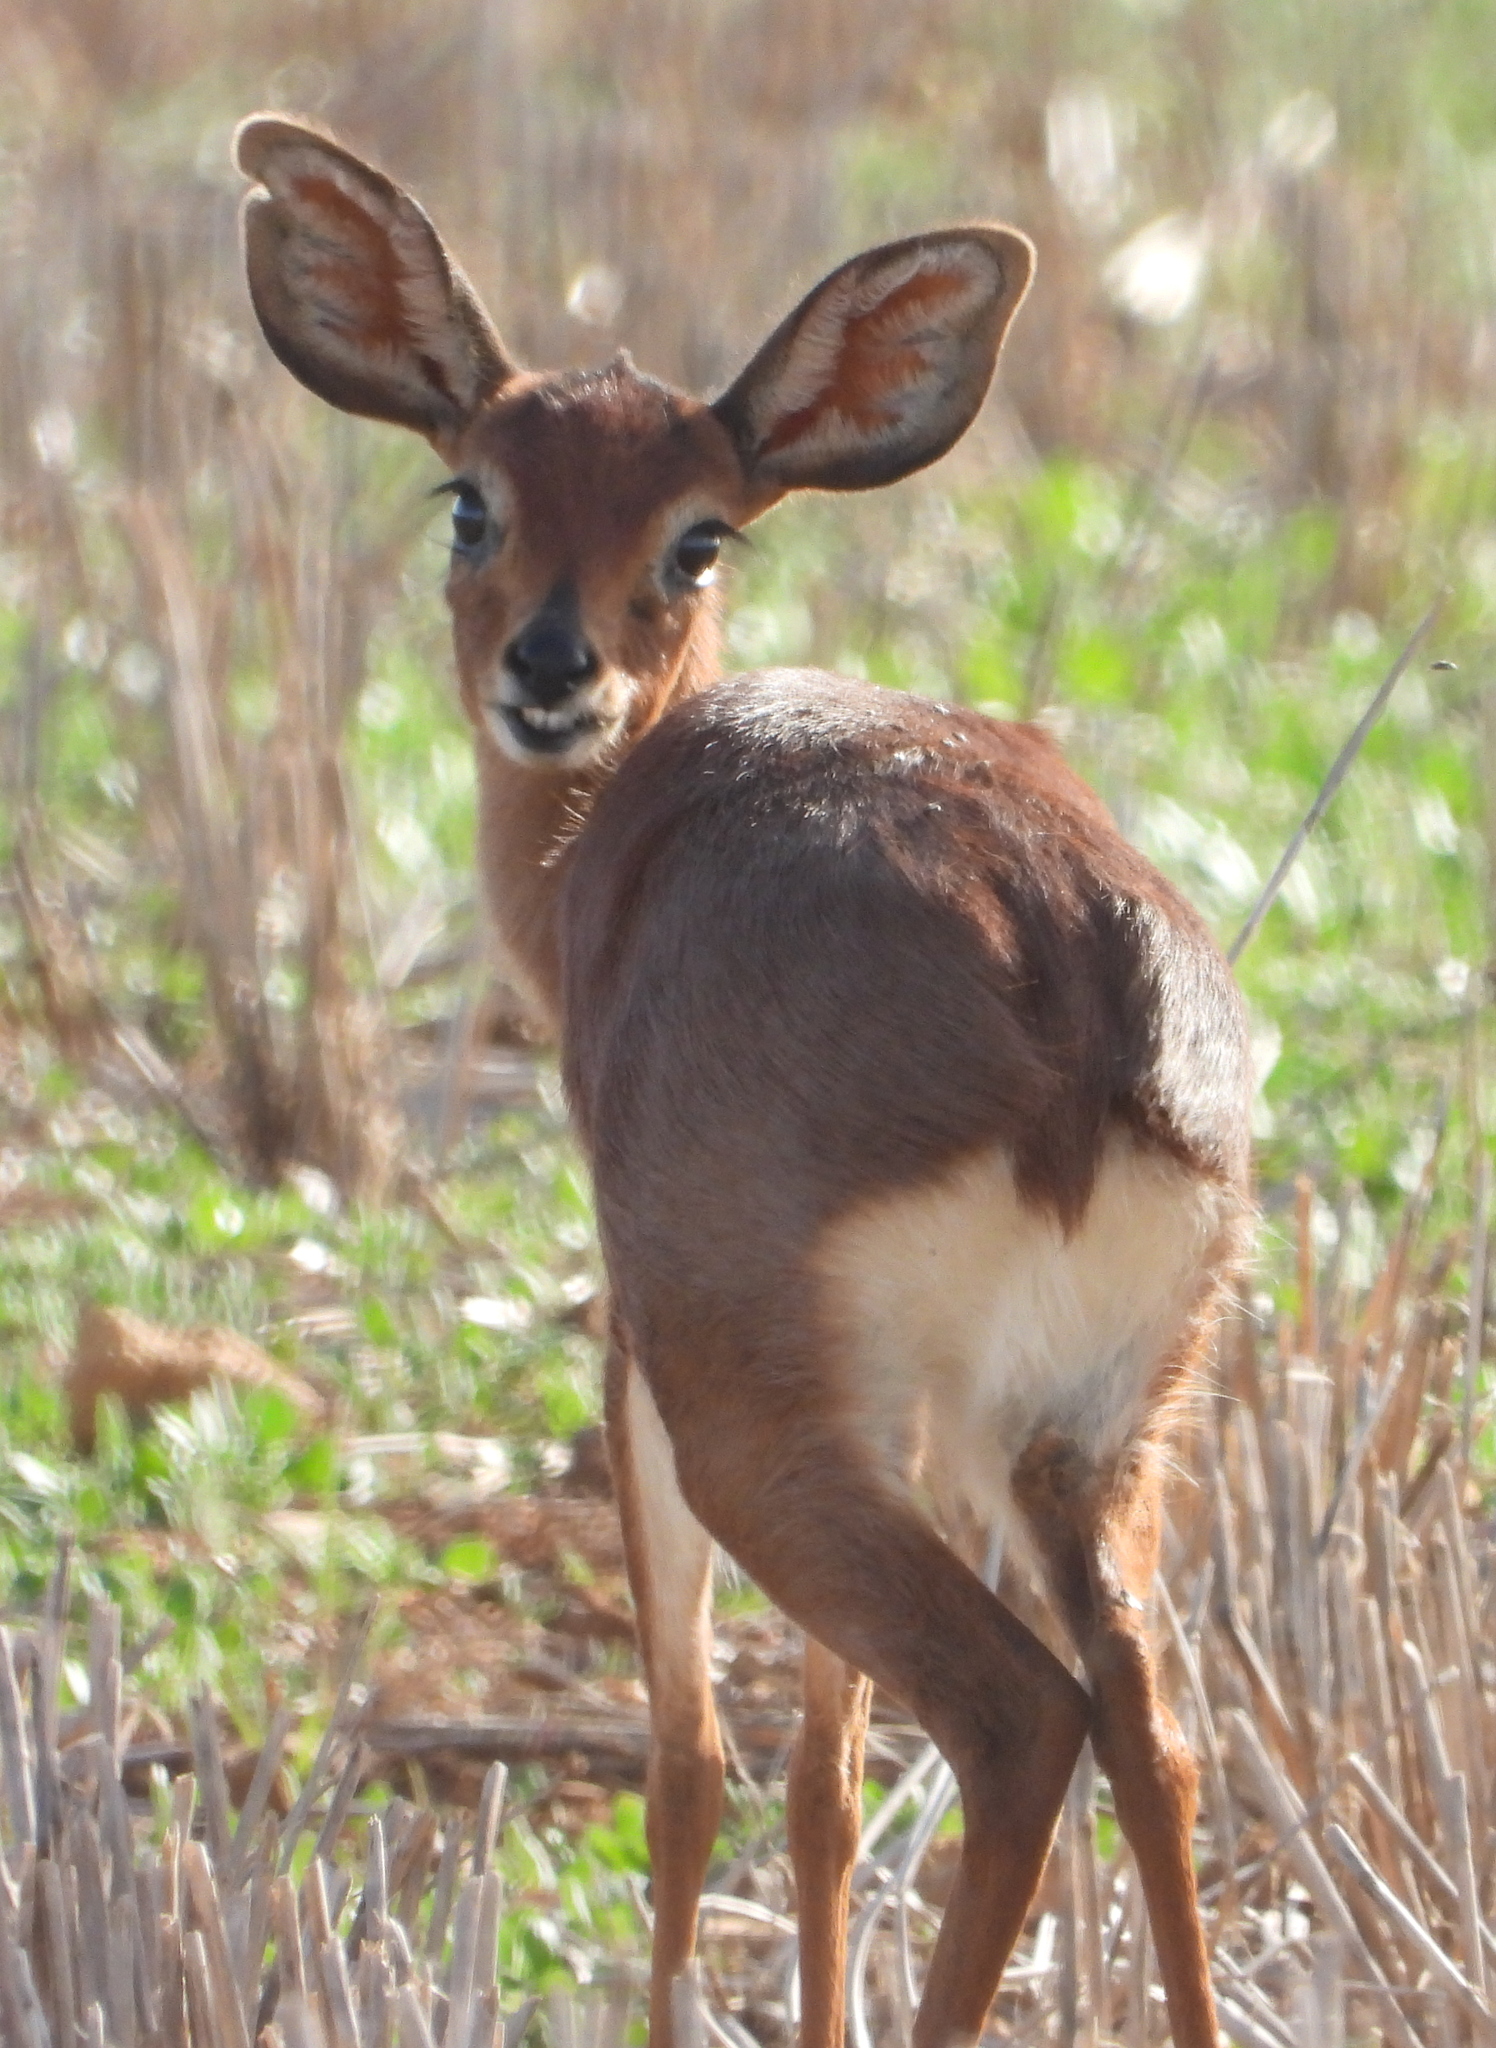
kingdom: Animalia
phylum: Chordata
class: Mammalia
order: Artiodactyla
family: Bovidae
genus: Raphicerus
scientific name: Raphicerus campestris
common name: Steenbok
